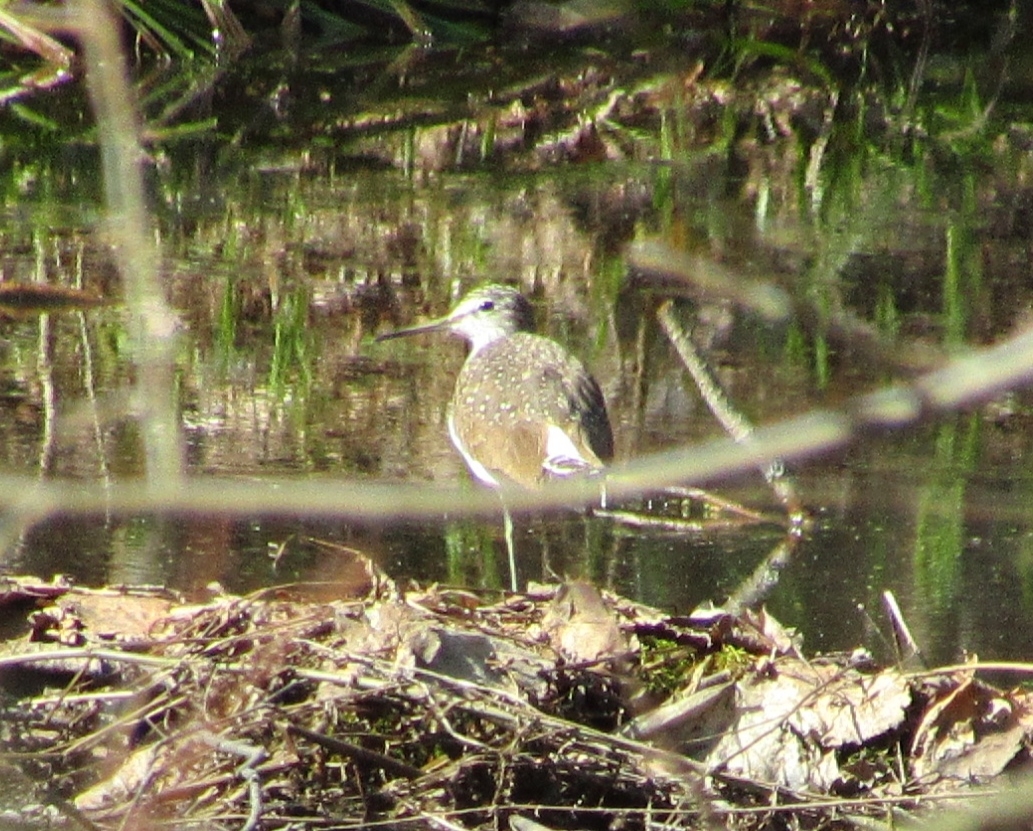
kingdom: Animalia
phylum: Chordata
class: Aves
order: Charadriiformes
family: Scolopacidae
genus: Tringa
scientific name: Tringa ochropus
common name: Green sandpiper
